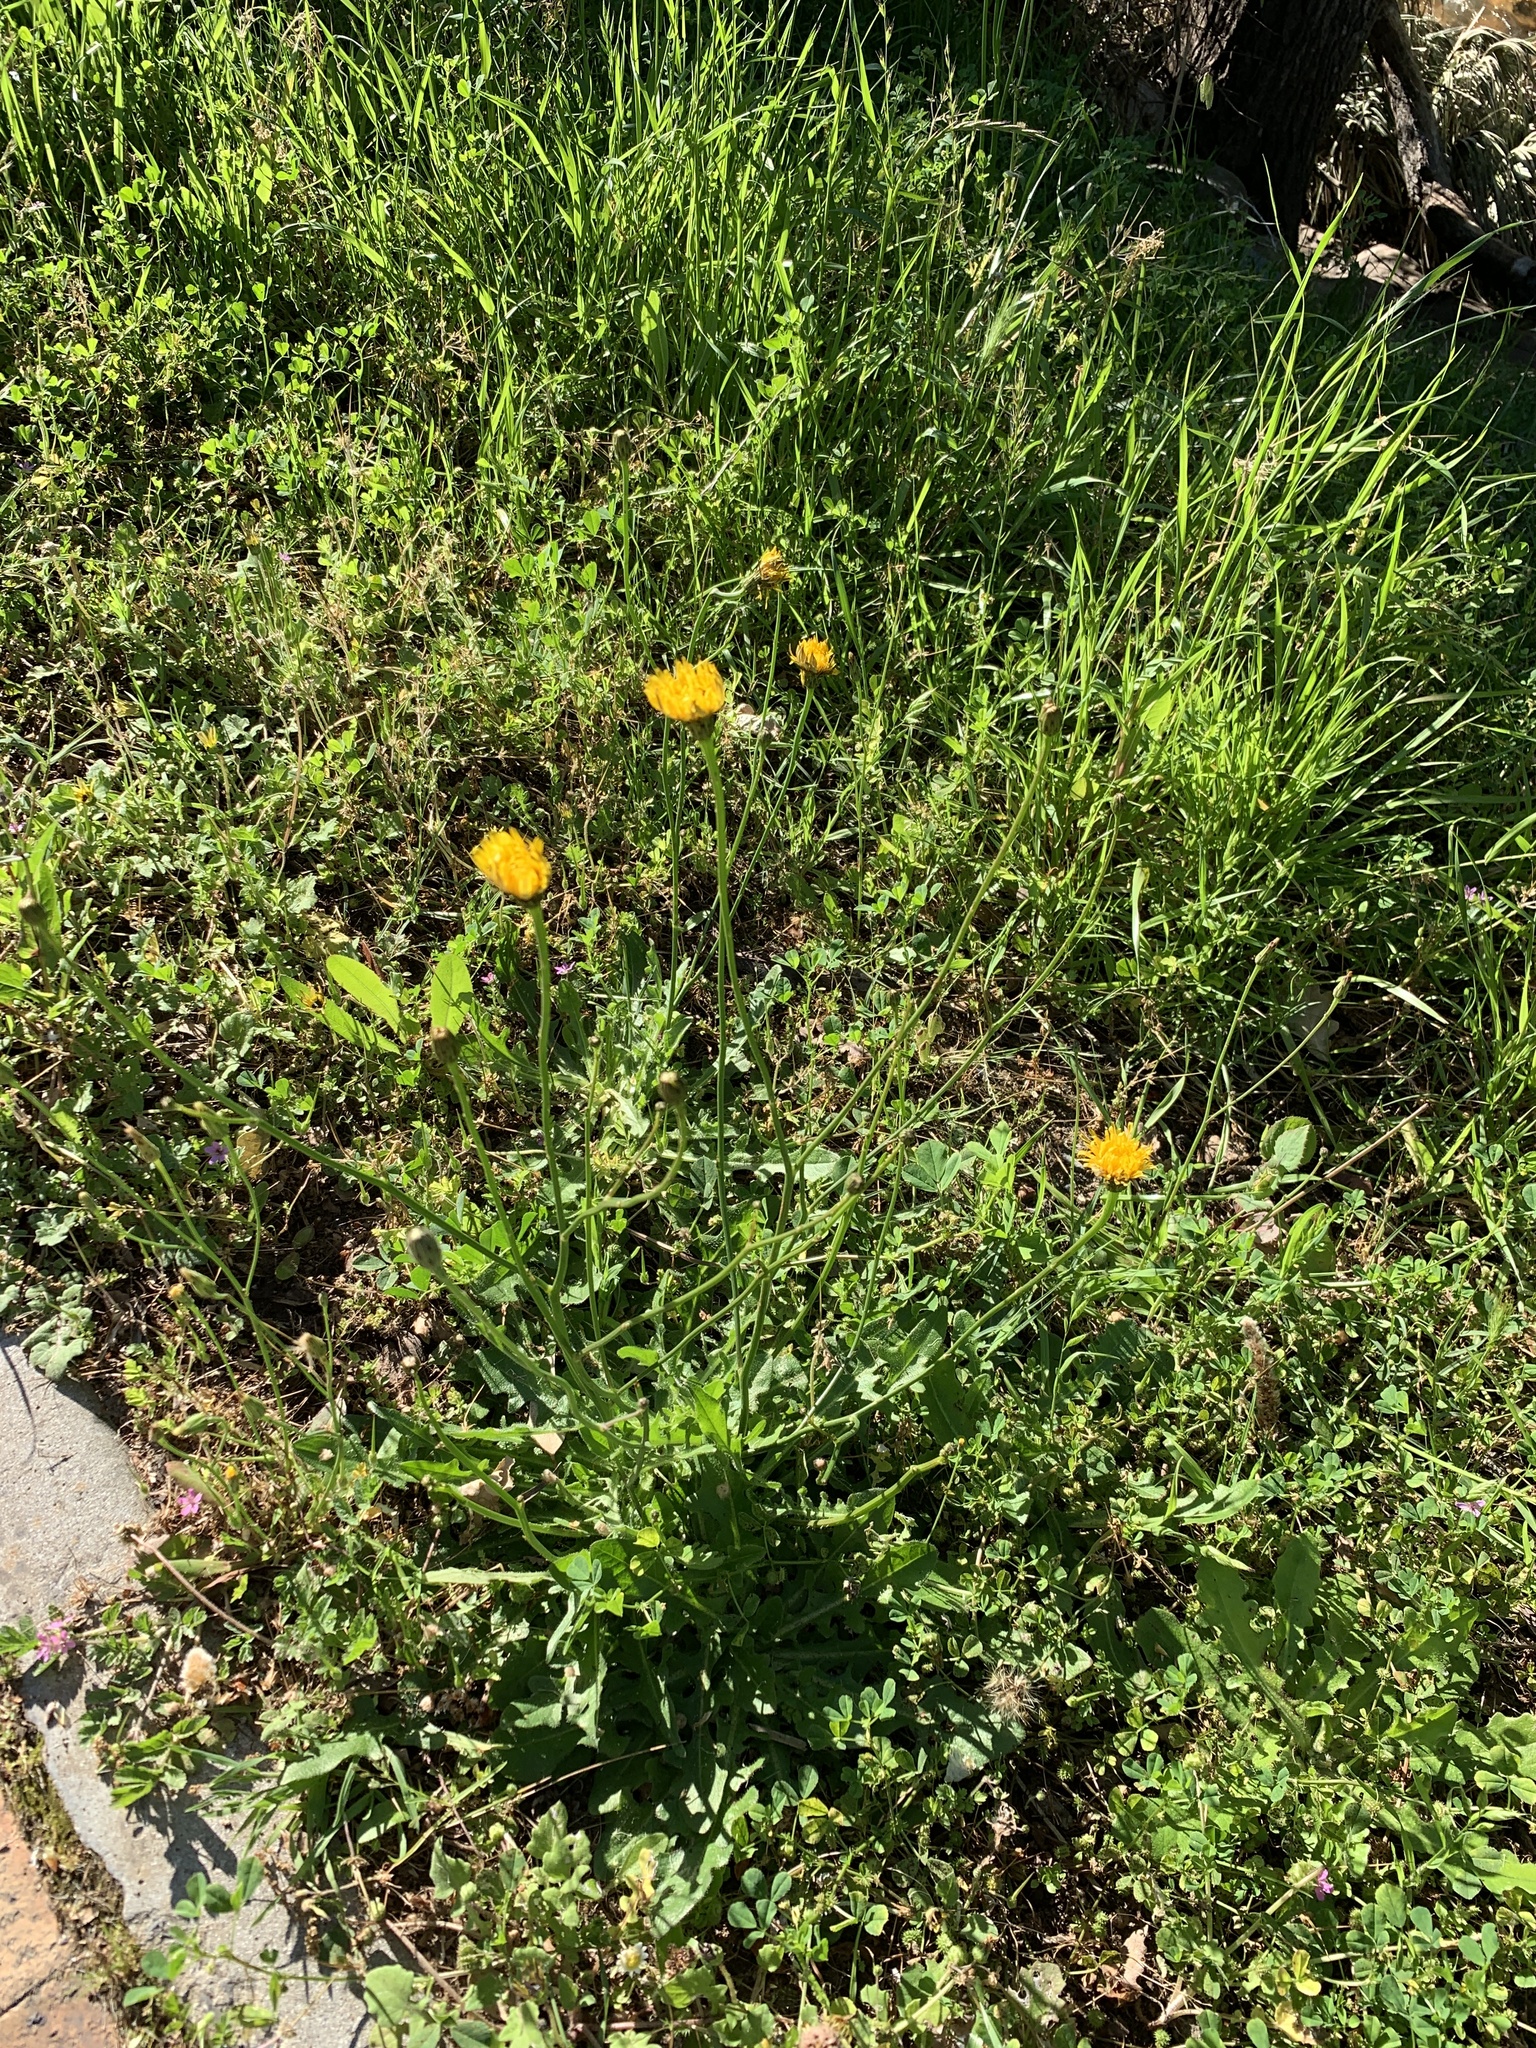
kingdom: Plantae
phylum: Tracheophyta
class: Magnoliopsida
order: Asterales
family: Asteraceae
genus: Hypochaeris
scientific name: Hypochaeris radicata
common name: Flatweed
